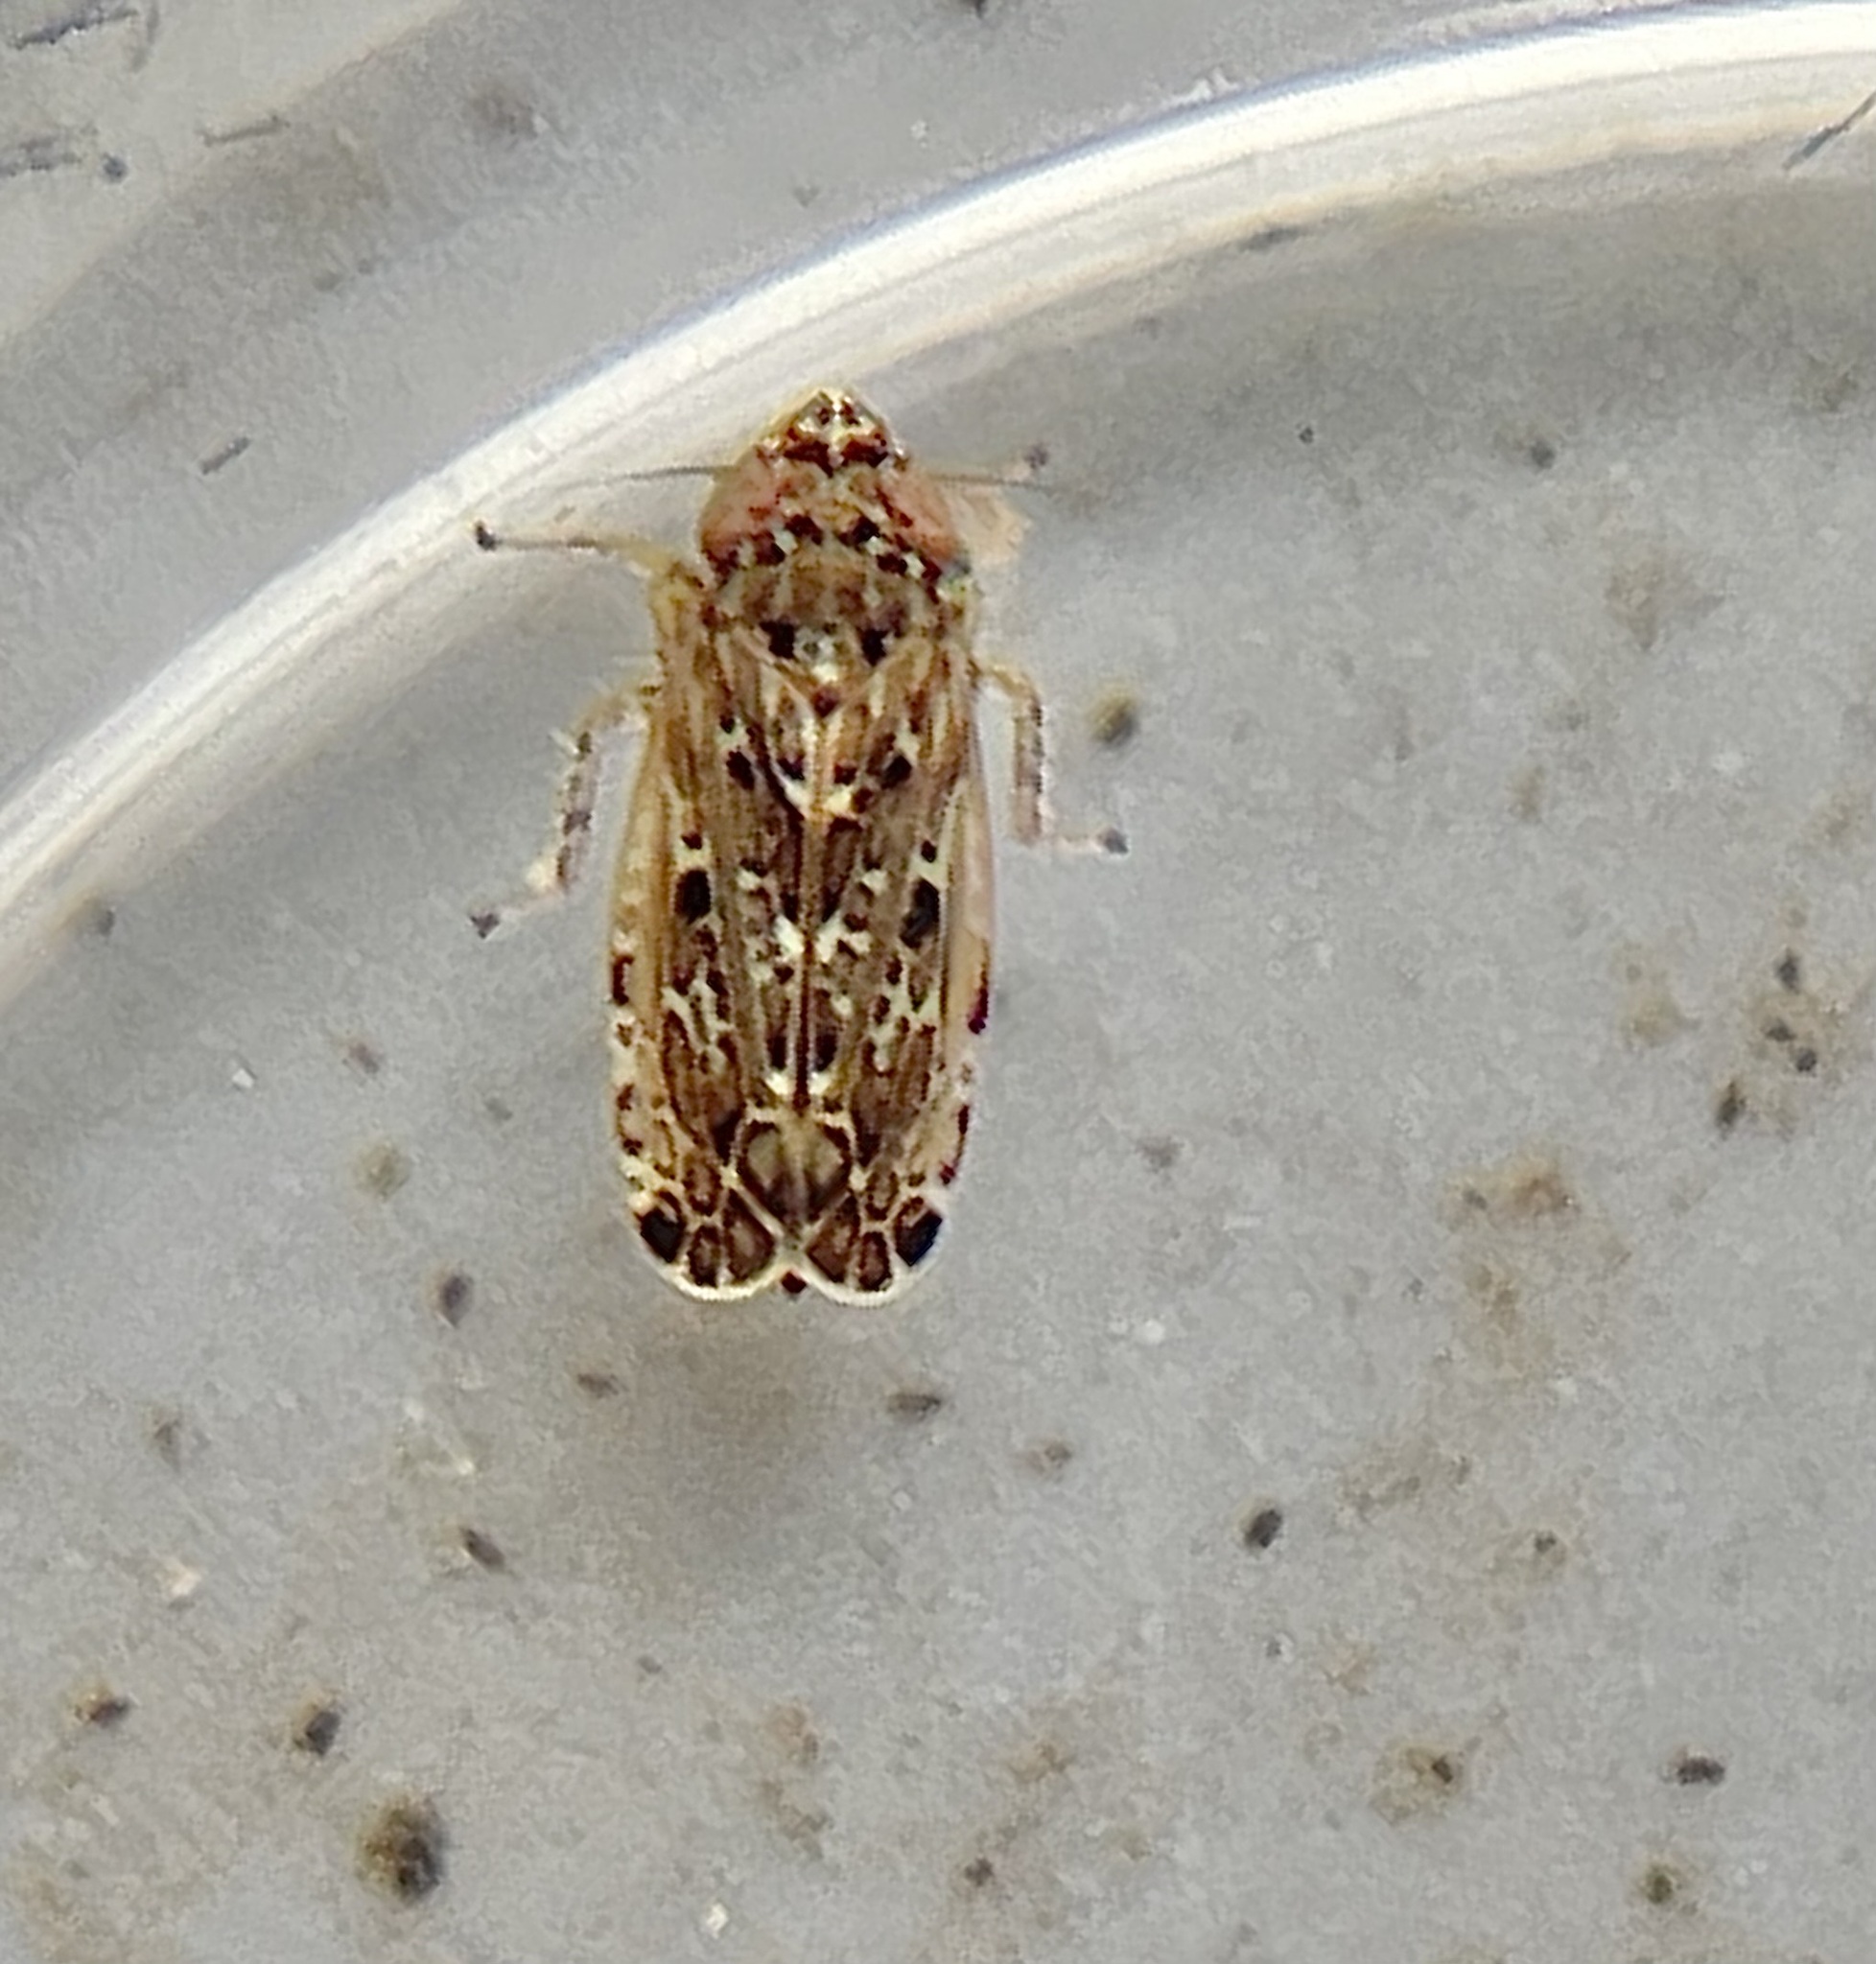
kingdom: Animalia
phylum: Arthropoda
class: Insecta
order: Hemiptera
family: Cicadellidae
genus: Polyamia
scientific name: Polyamia weedi
